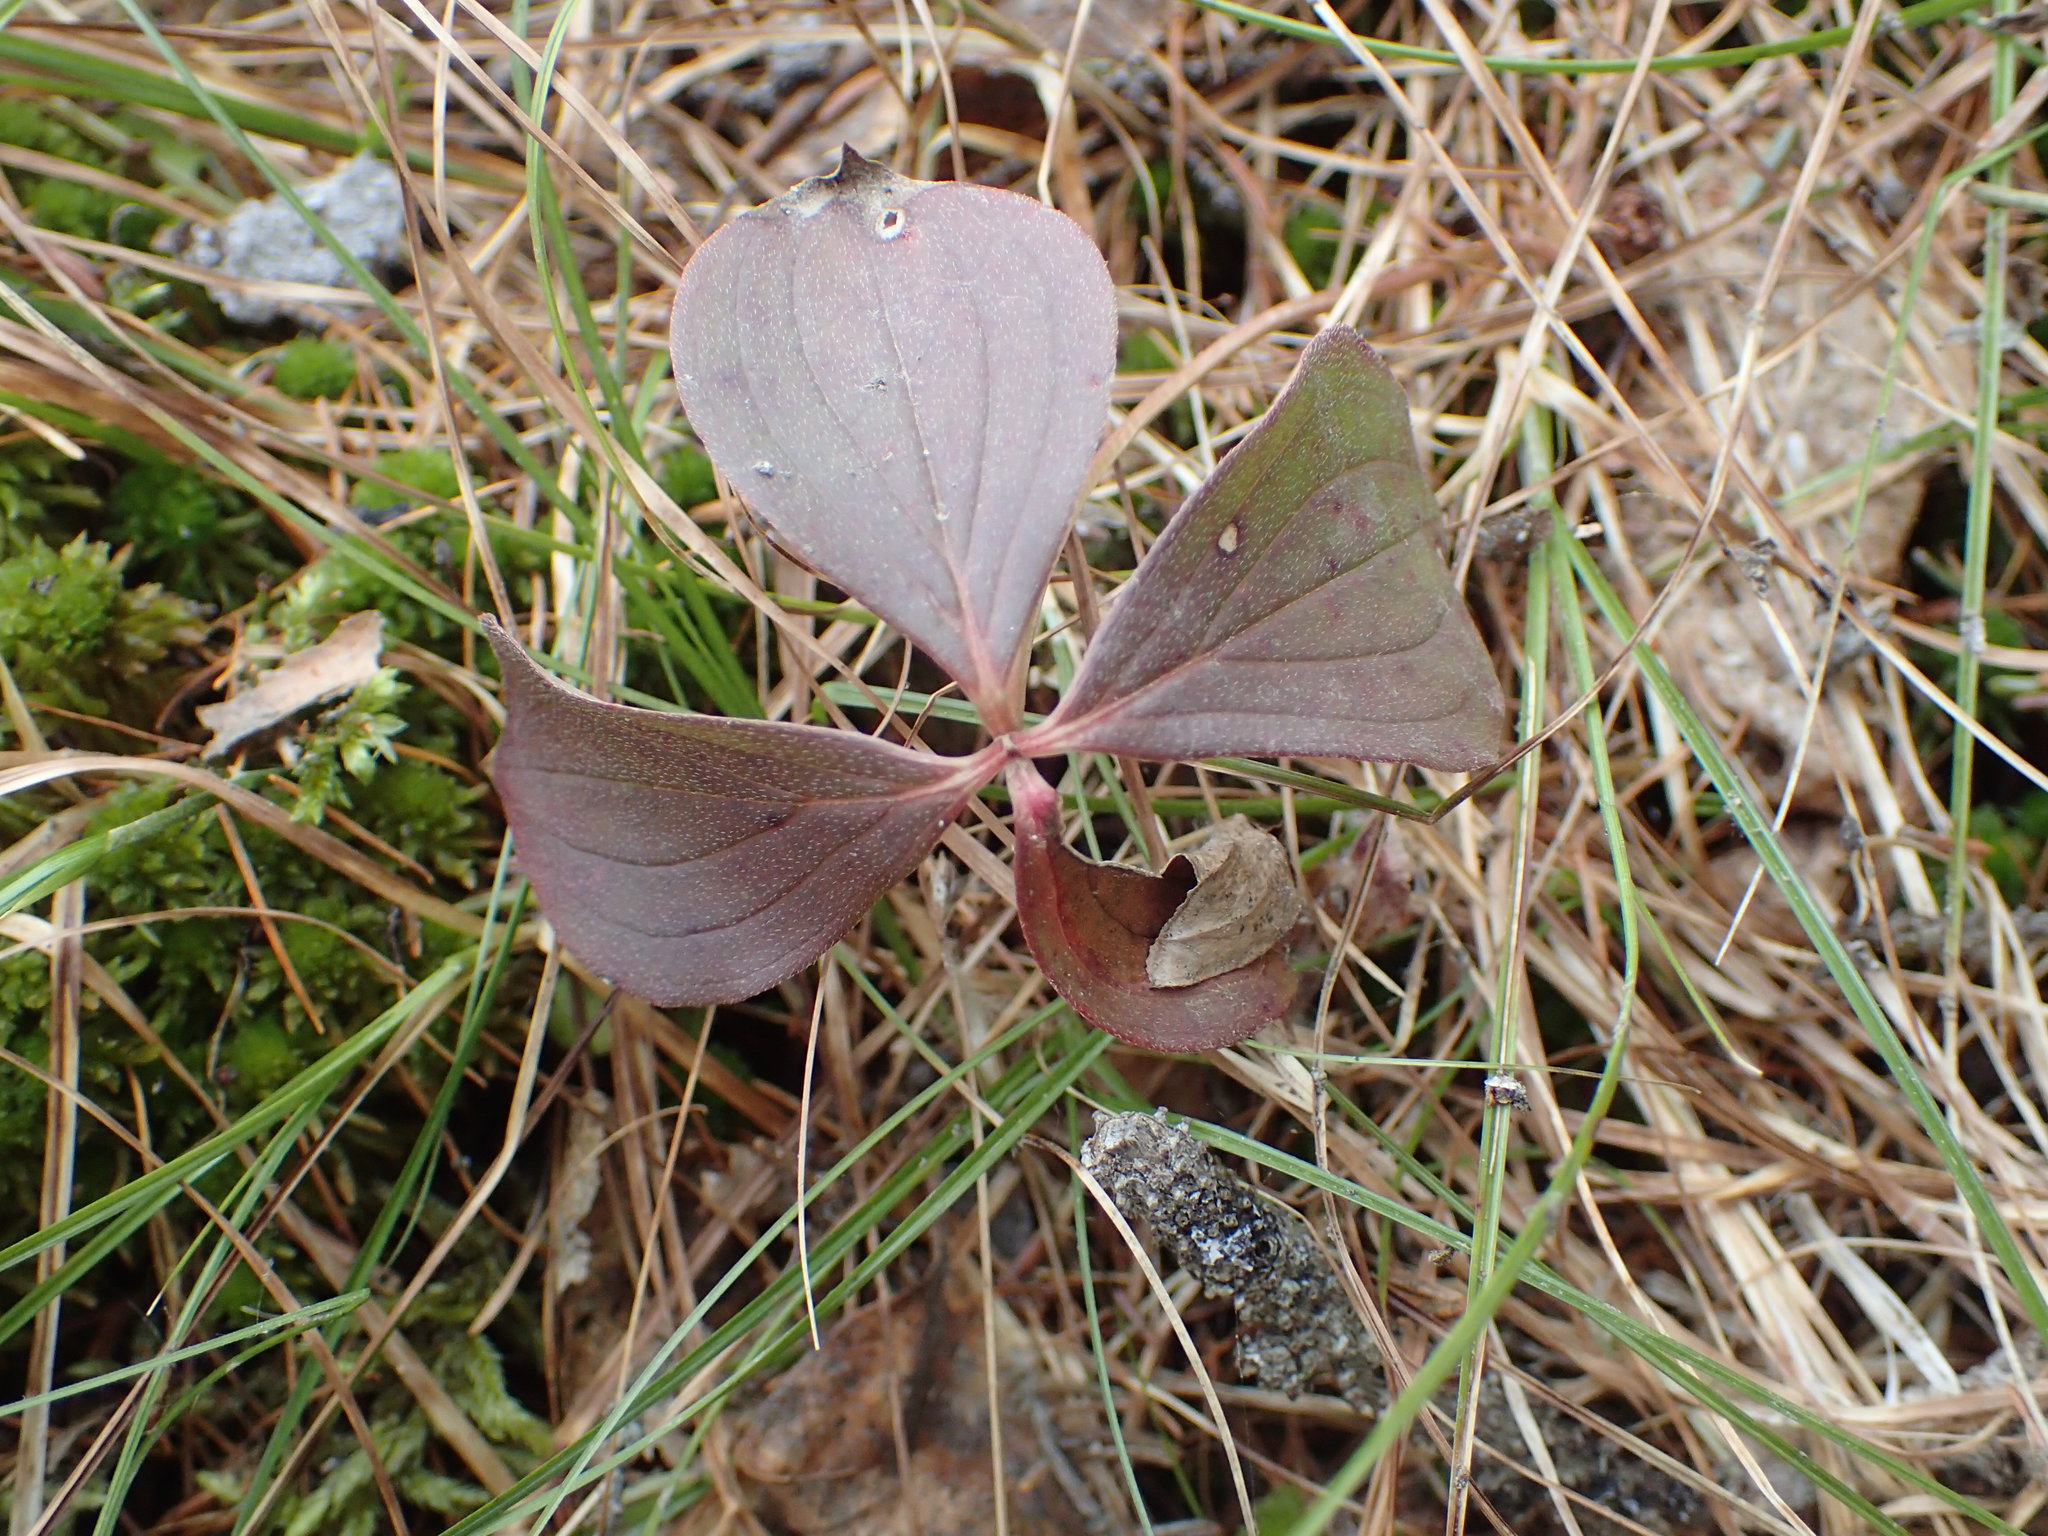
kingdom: Plantae
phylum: Tracheophyta
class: Magnoliopsida
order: Cornales
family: Cornaceae
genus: Cornus
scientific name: Cornus canadensis
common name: Creeping dogwood
